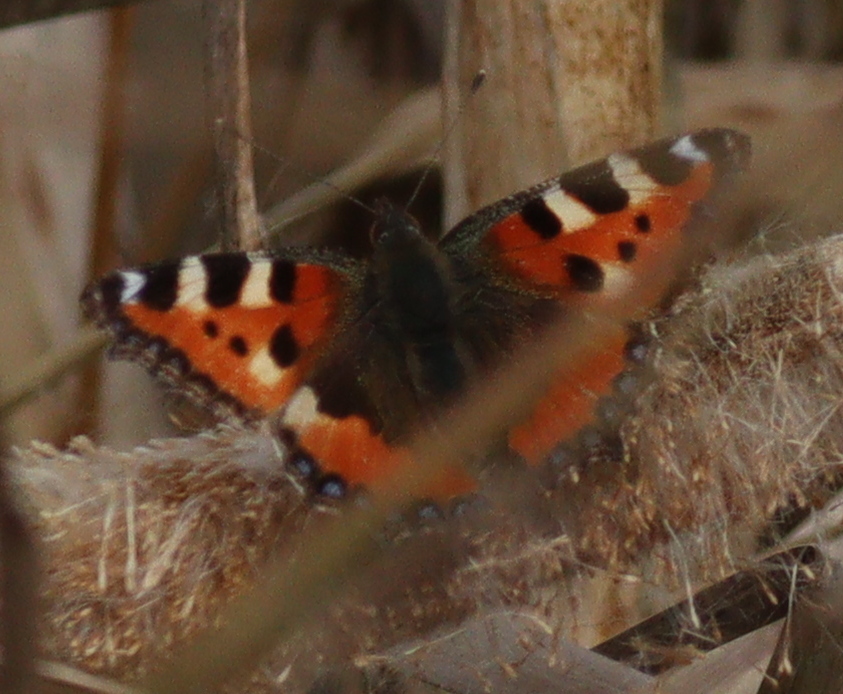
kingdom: Animalia
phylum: Arthropoda
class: Insecta
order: Lepidoptera
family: Nymphalidae
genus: Aglais
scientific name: Aglais urticae
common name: Small tortoiseshell
